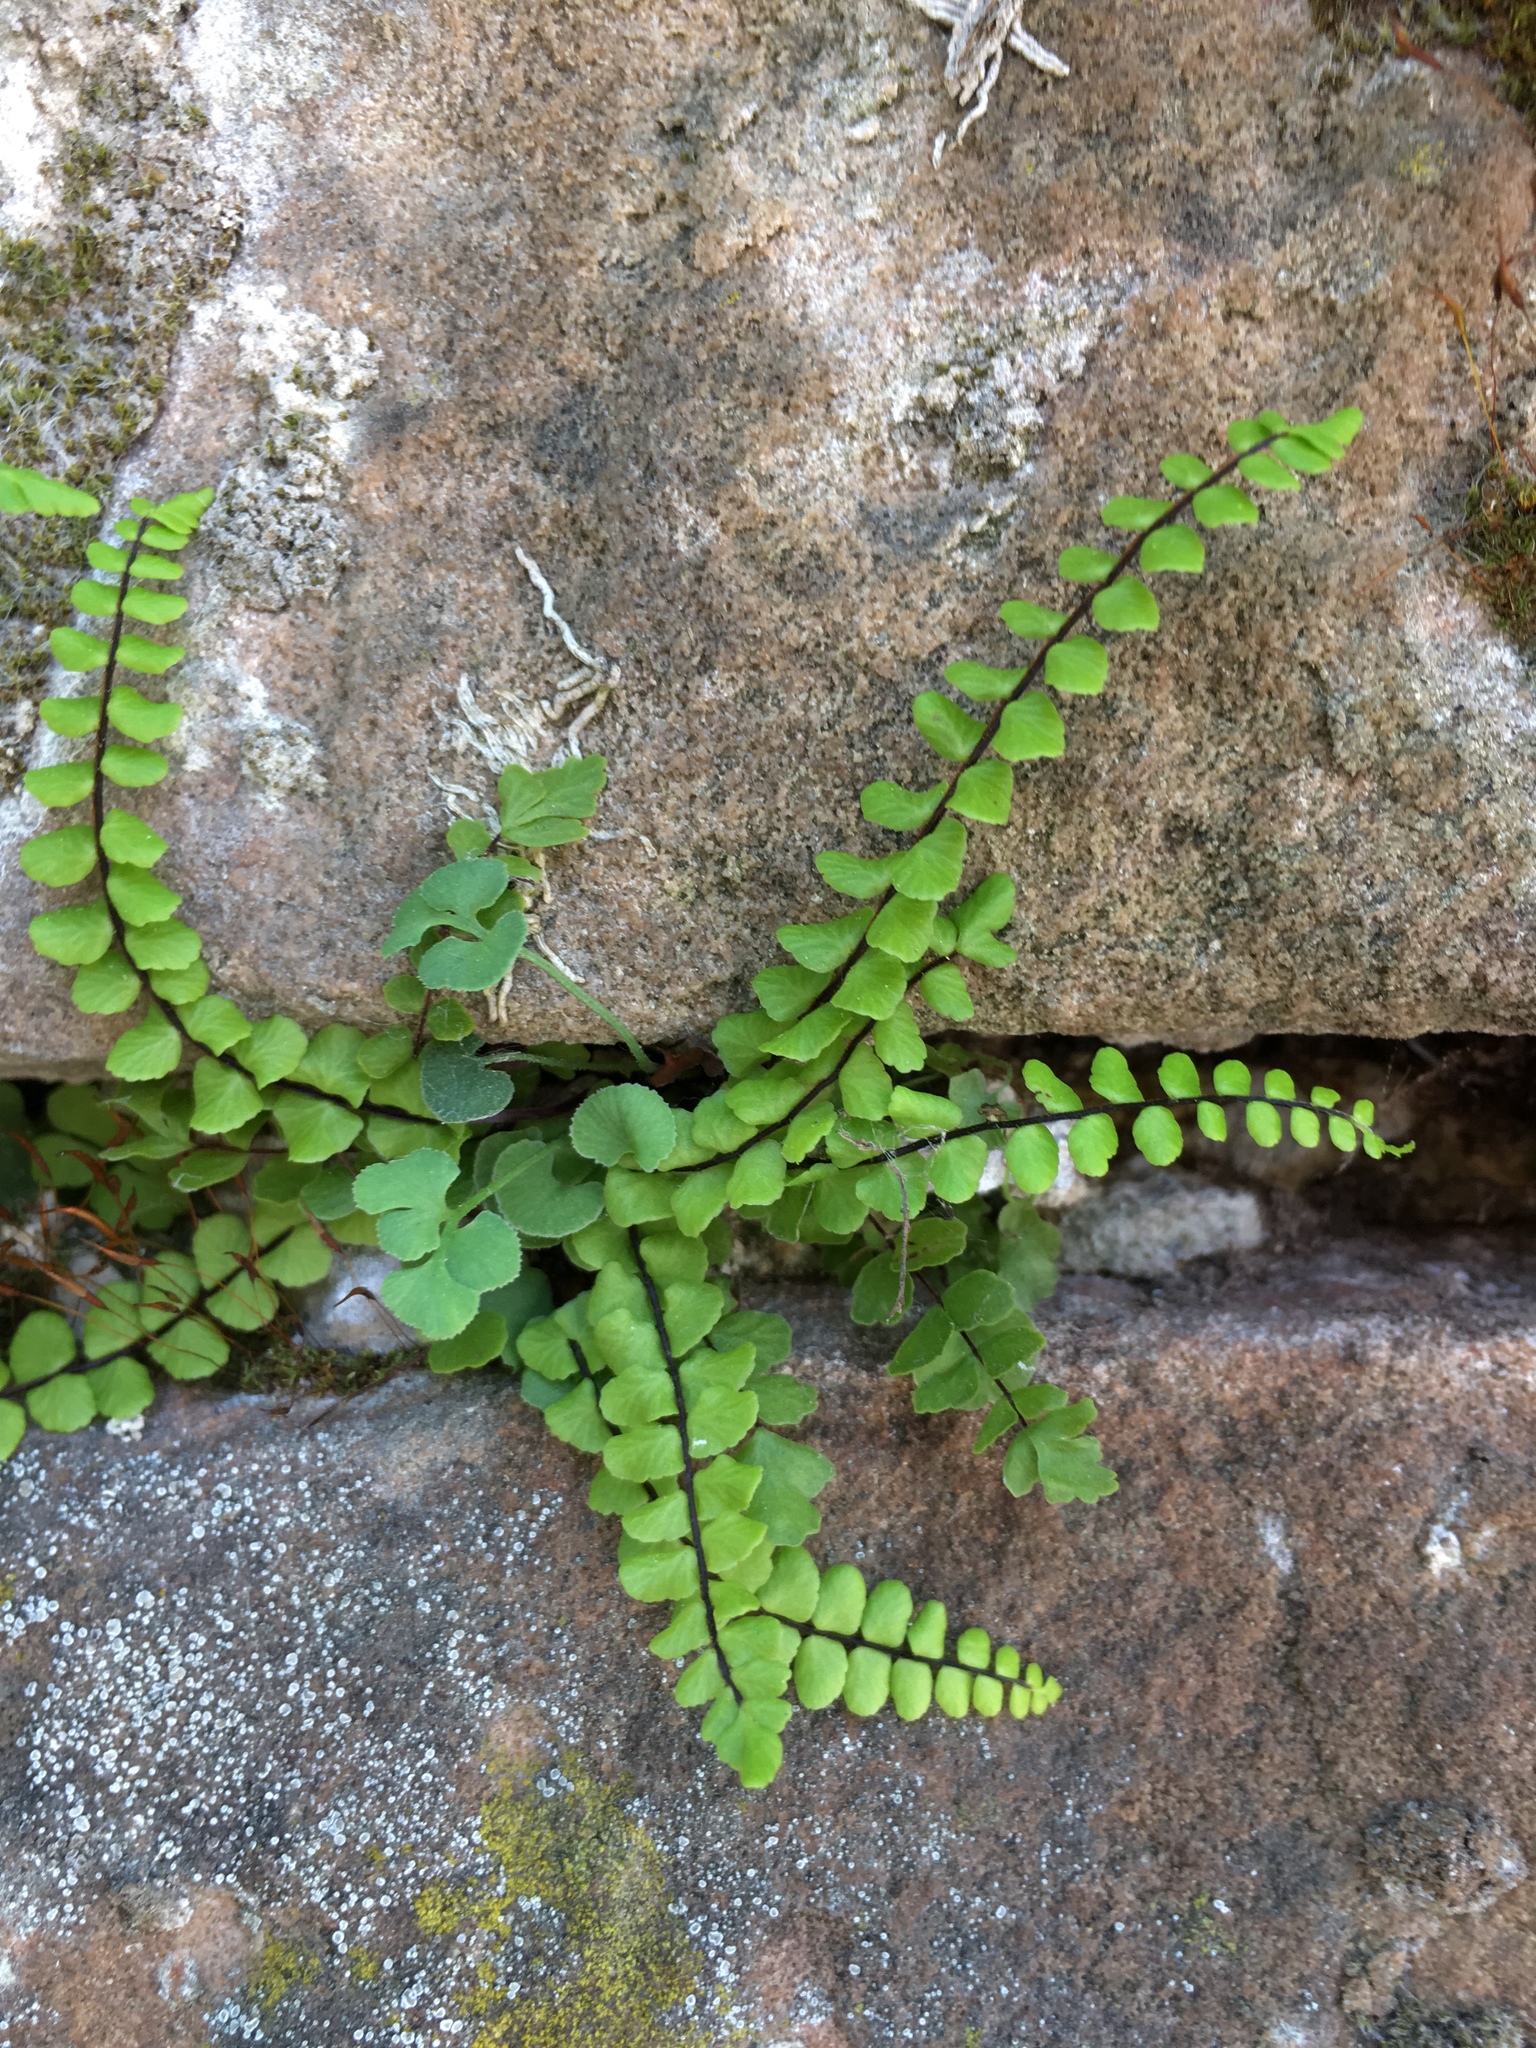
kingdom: Plantae
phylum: Tracheophyta
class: Polypodiopsida
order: Polypodiales
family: Aspleniaceae
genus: Asplenium
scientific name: Asplenium trichomanes
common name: Maidenhair spleenwort
